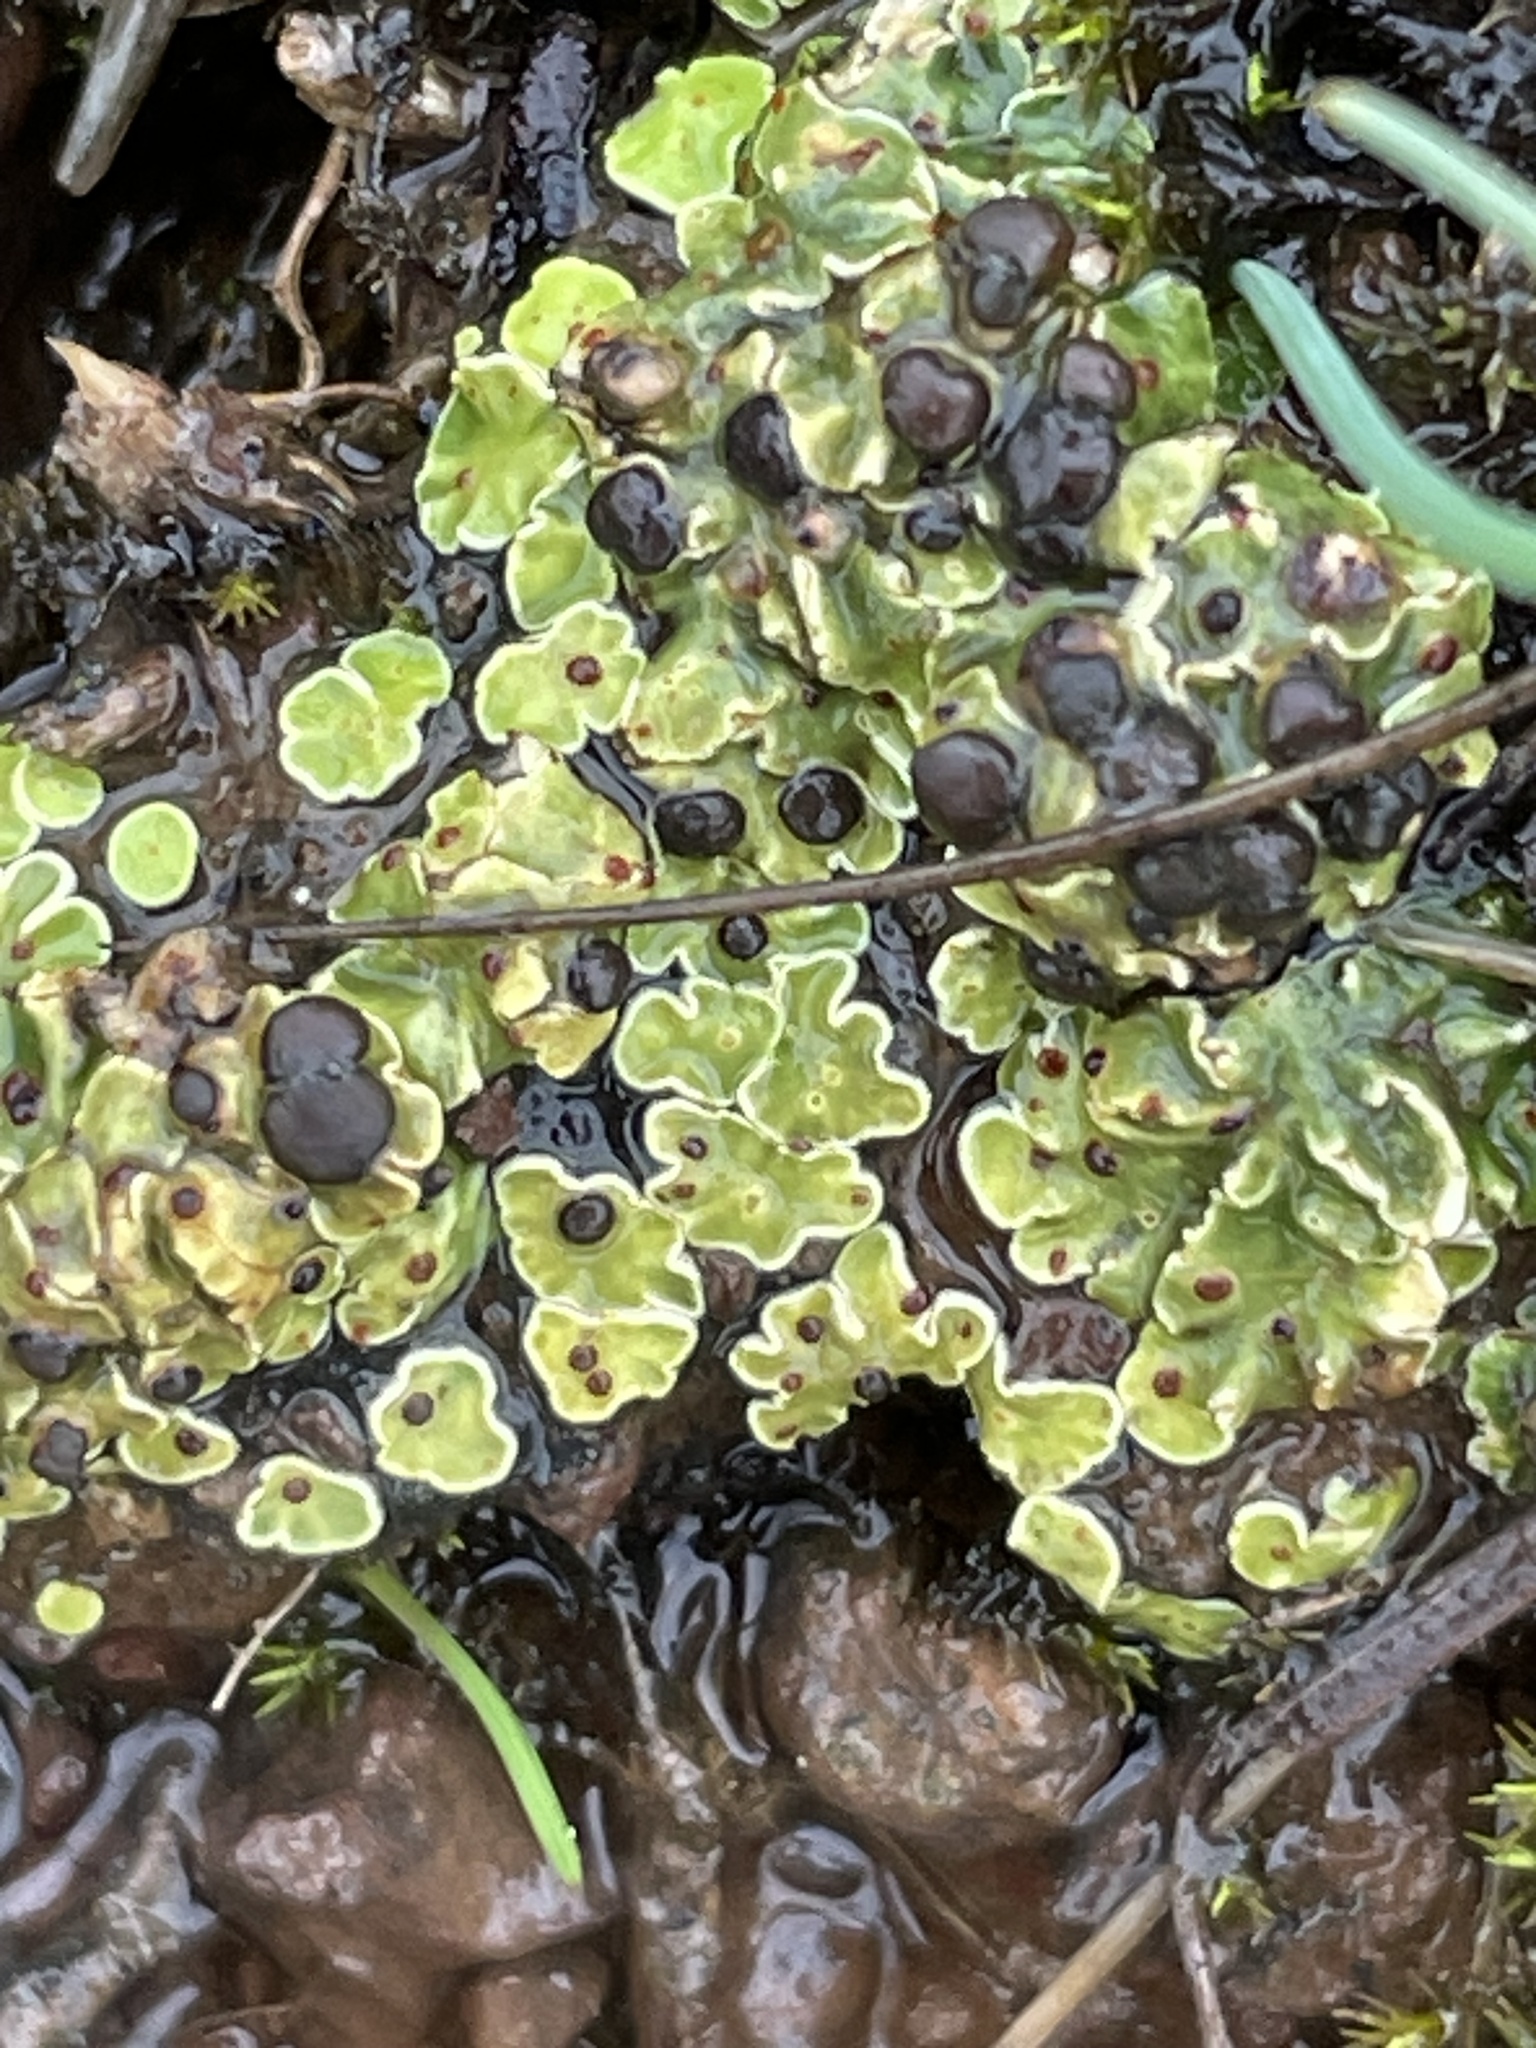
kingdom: Fungi
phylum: Ascomycota
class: Lecanoromycetes
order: Lecanorales
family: Psoraceae
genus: Psora
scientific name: Psora icterica
